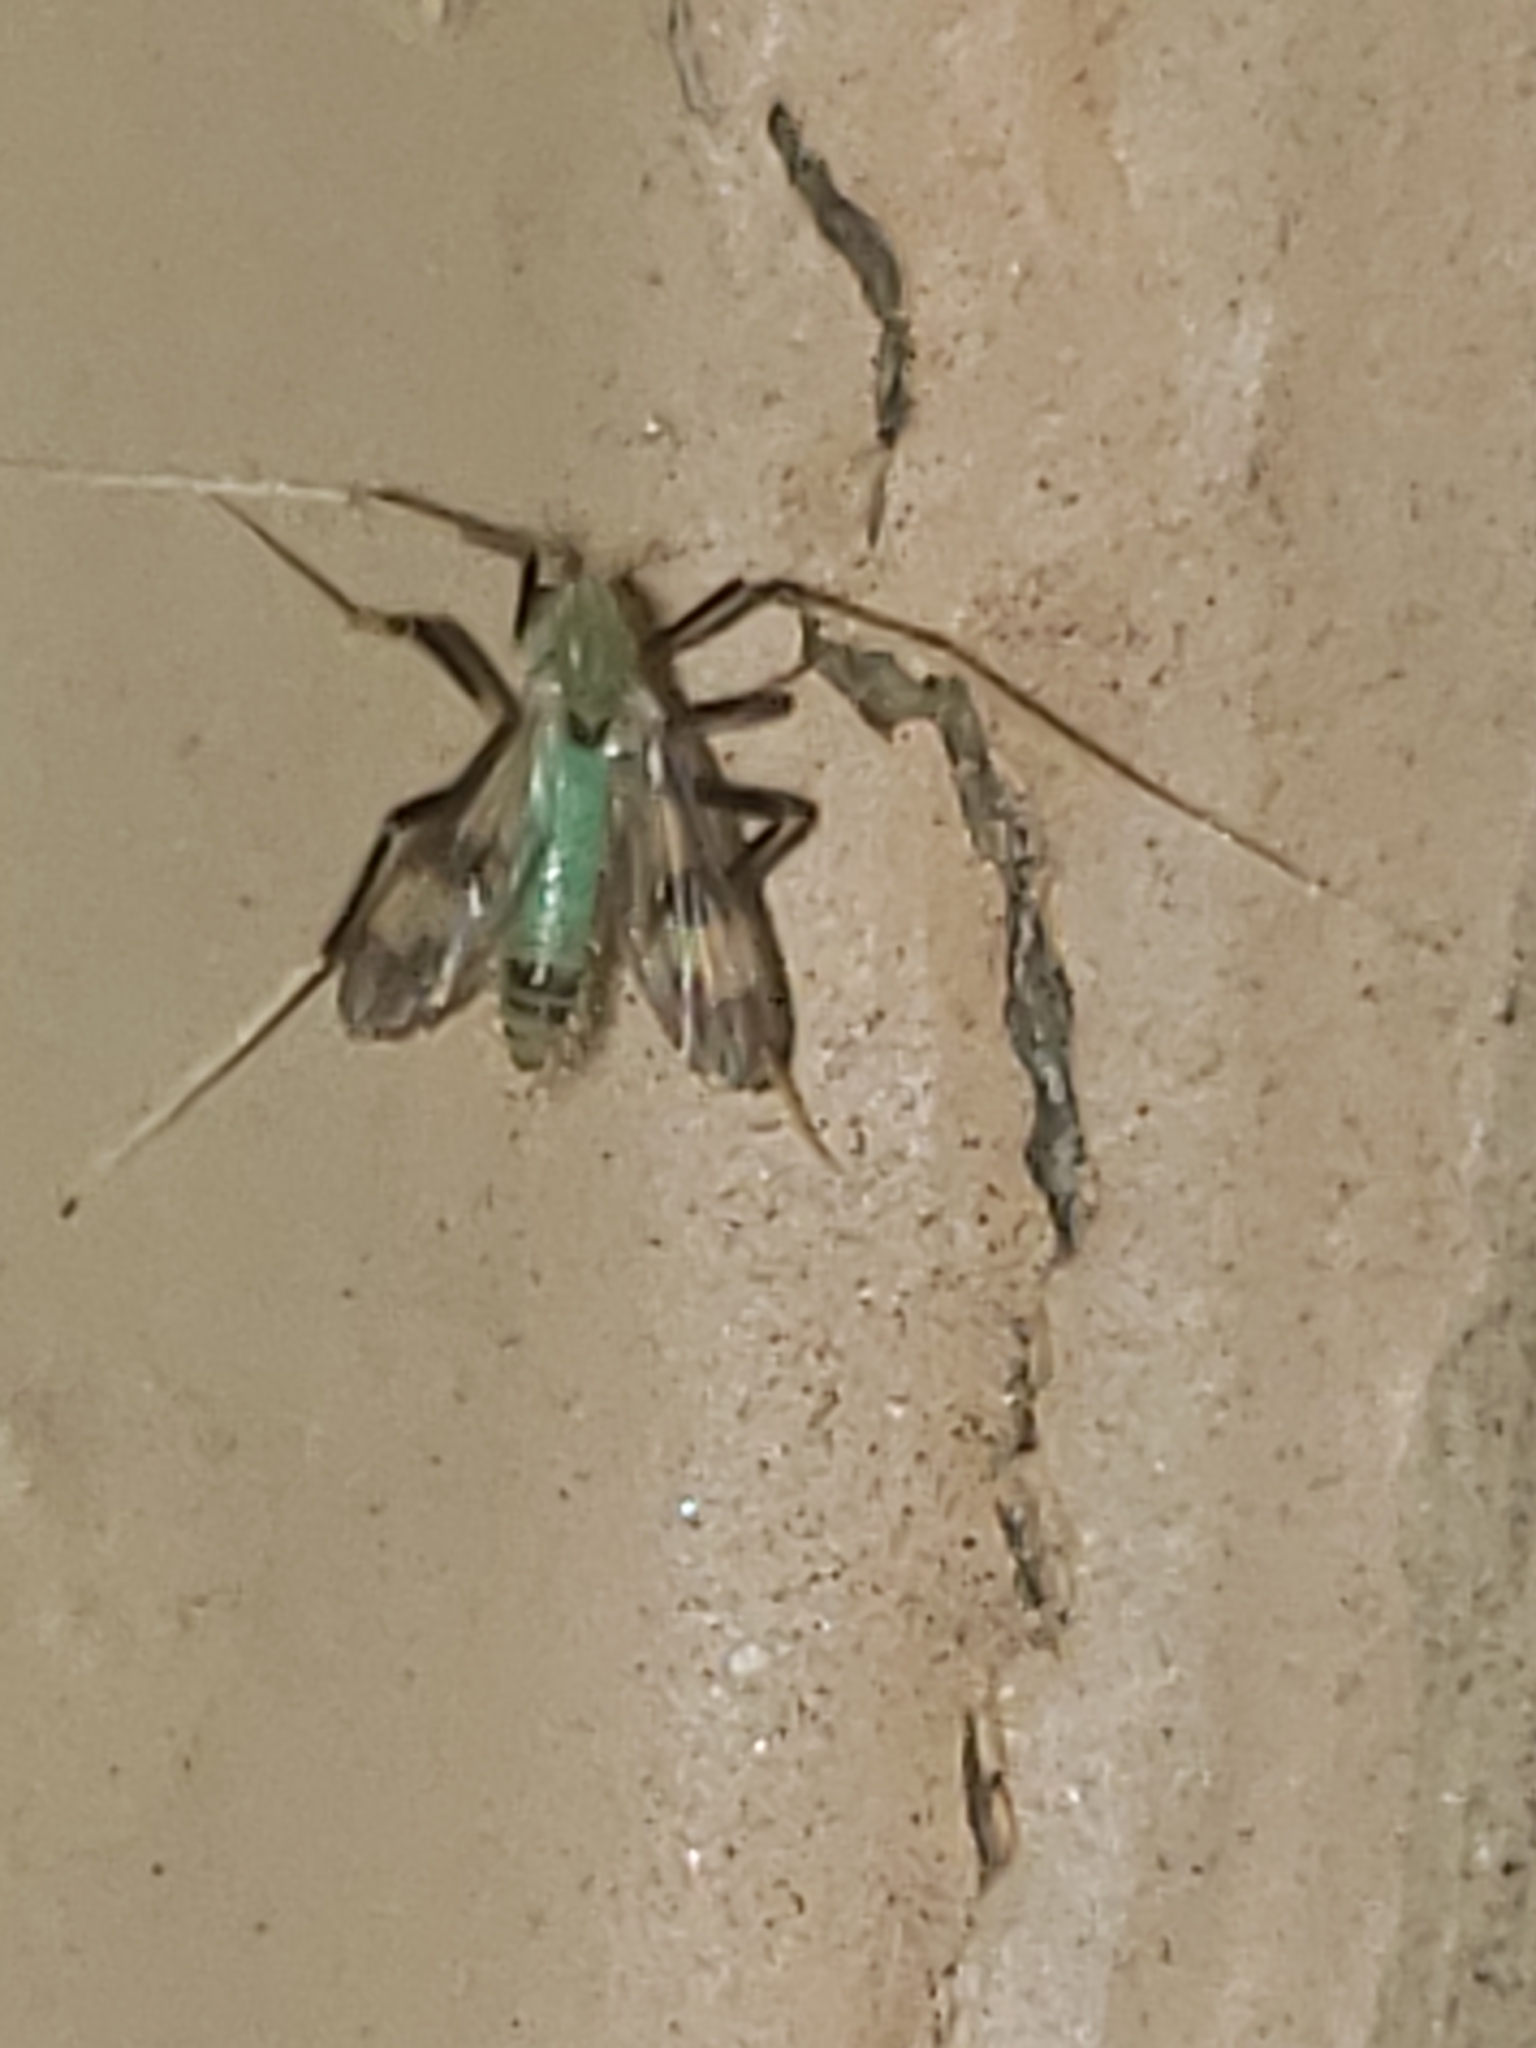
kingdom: Animalia
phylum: Arthropoda
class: Insecta
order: Diptera
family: Chironomidae
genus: Stenochironomus
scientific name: Stenochironomus hilaris
